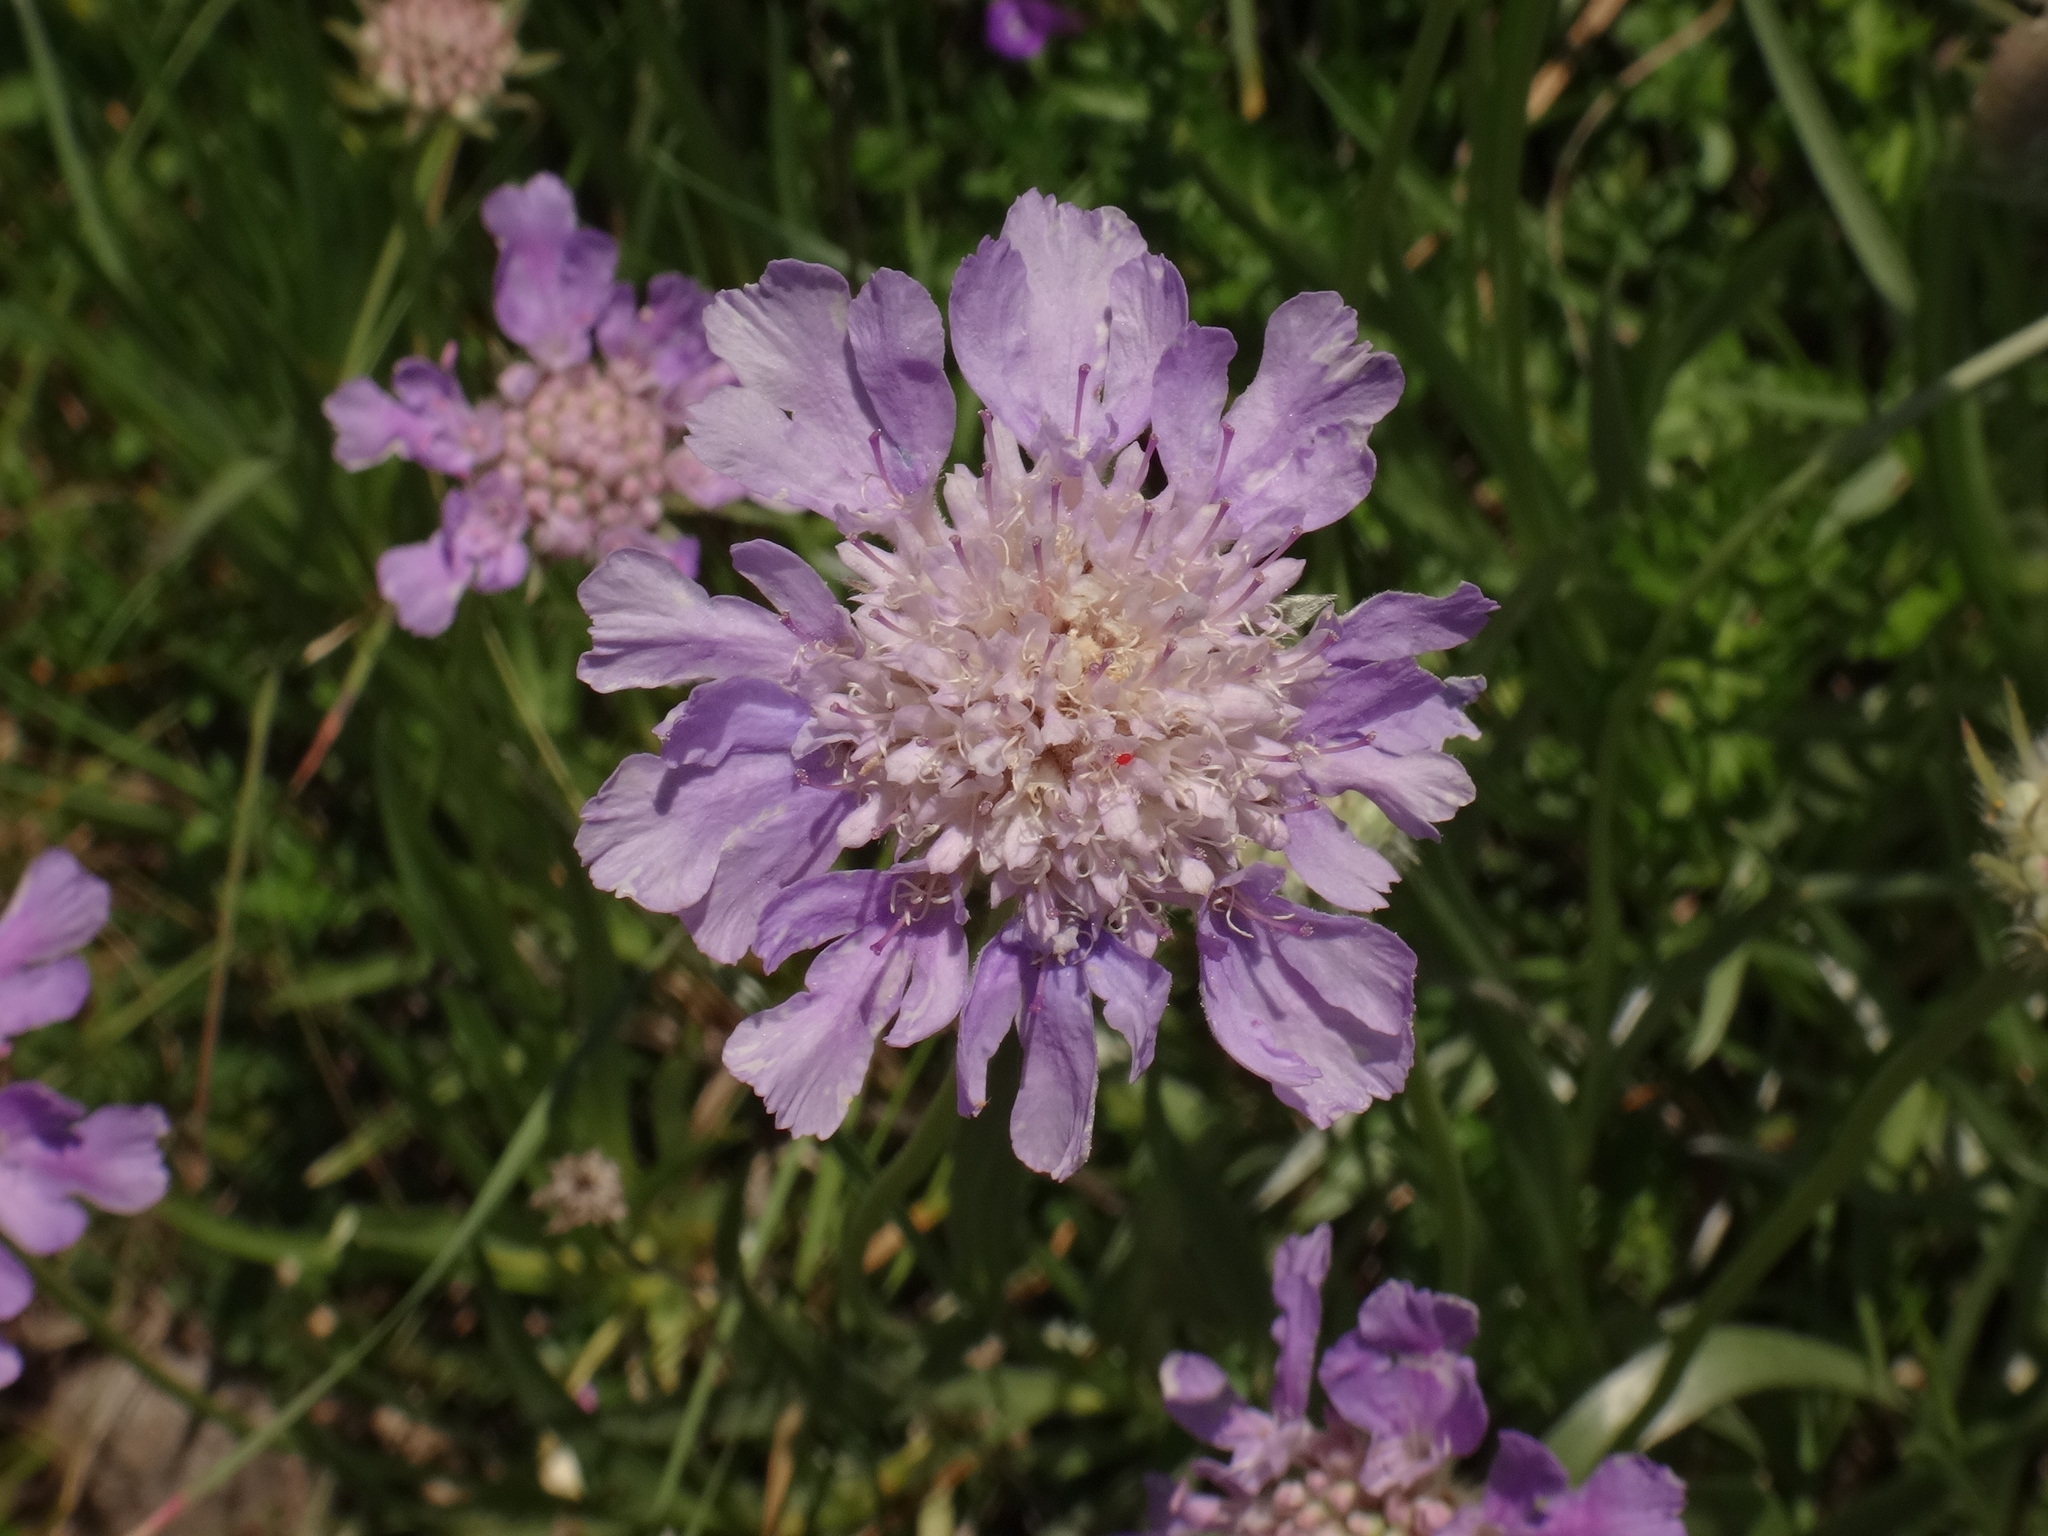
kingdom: Plantae
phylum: Tracheophyta
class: Magnoliopsida
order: Dipsacales
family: Caprifoliaceae
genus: Lomelosia
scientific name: Lomelosia graminifolia
